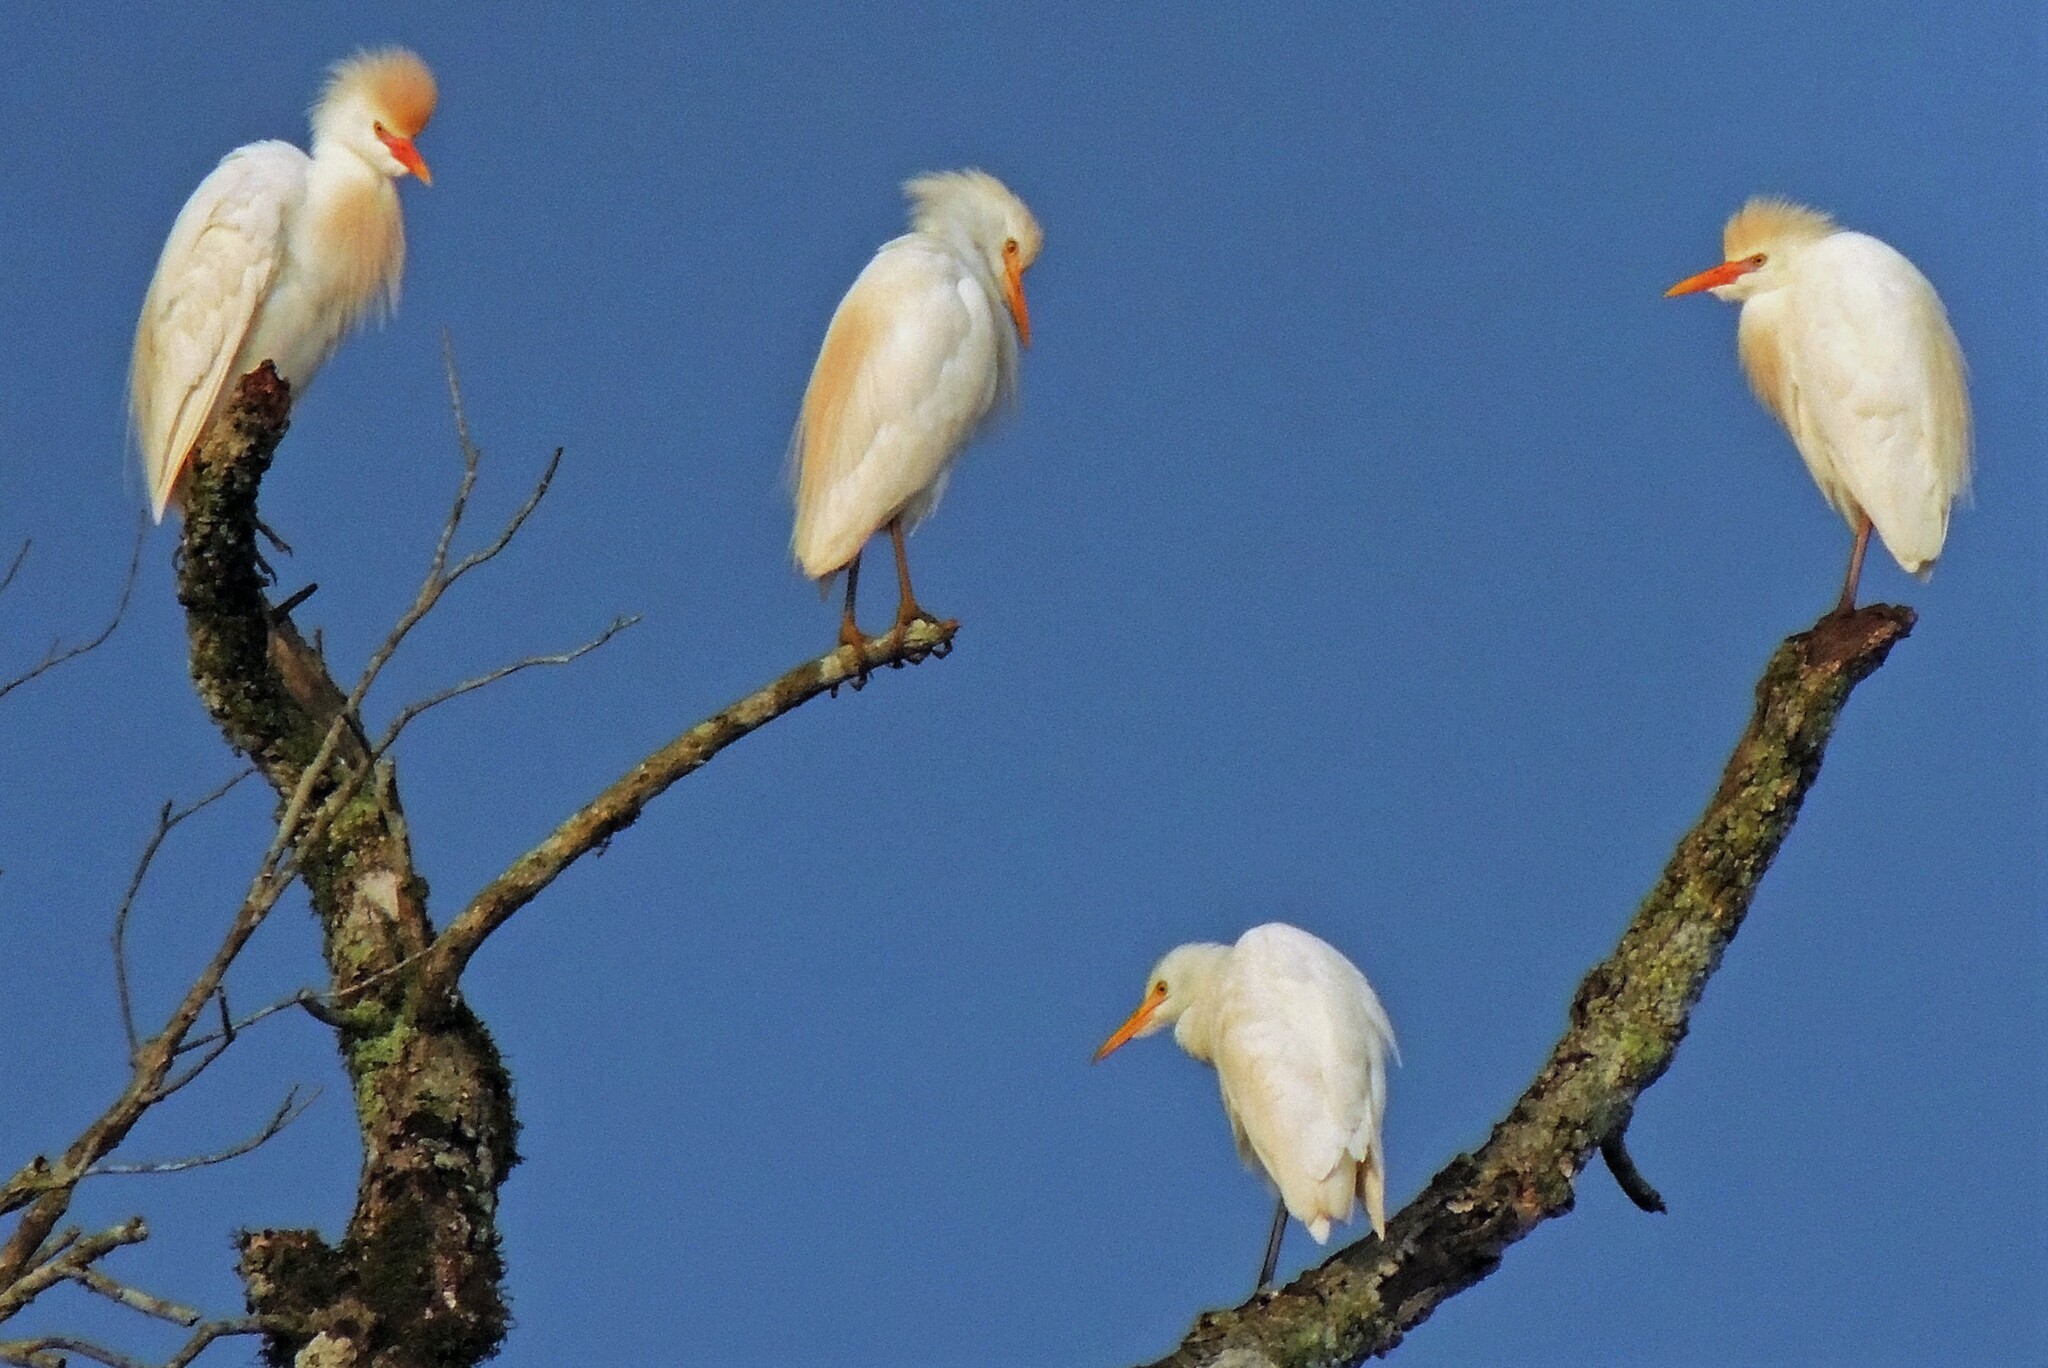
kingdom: Animalia
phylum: Chordata
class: Aves
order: Pelecaniformes
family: Ardeidae
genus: Bubulcus
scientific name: Bubulcus ibis
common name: Cattle egret
